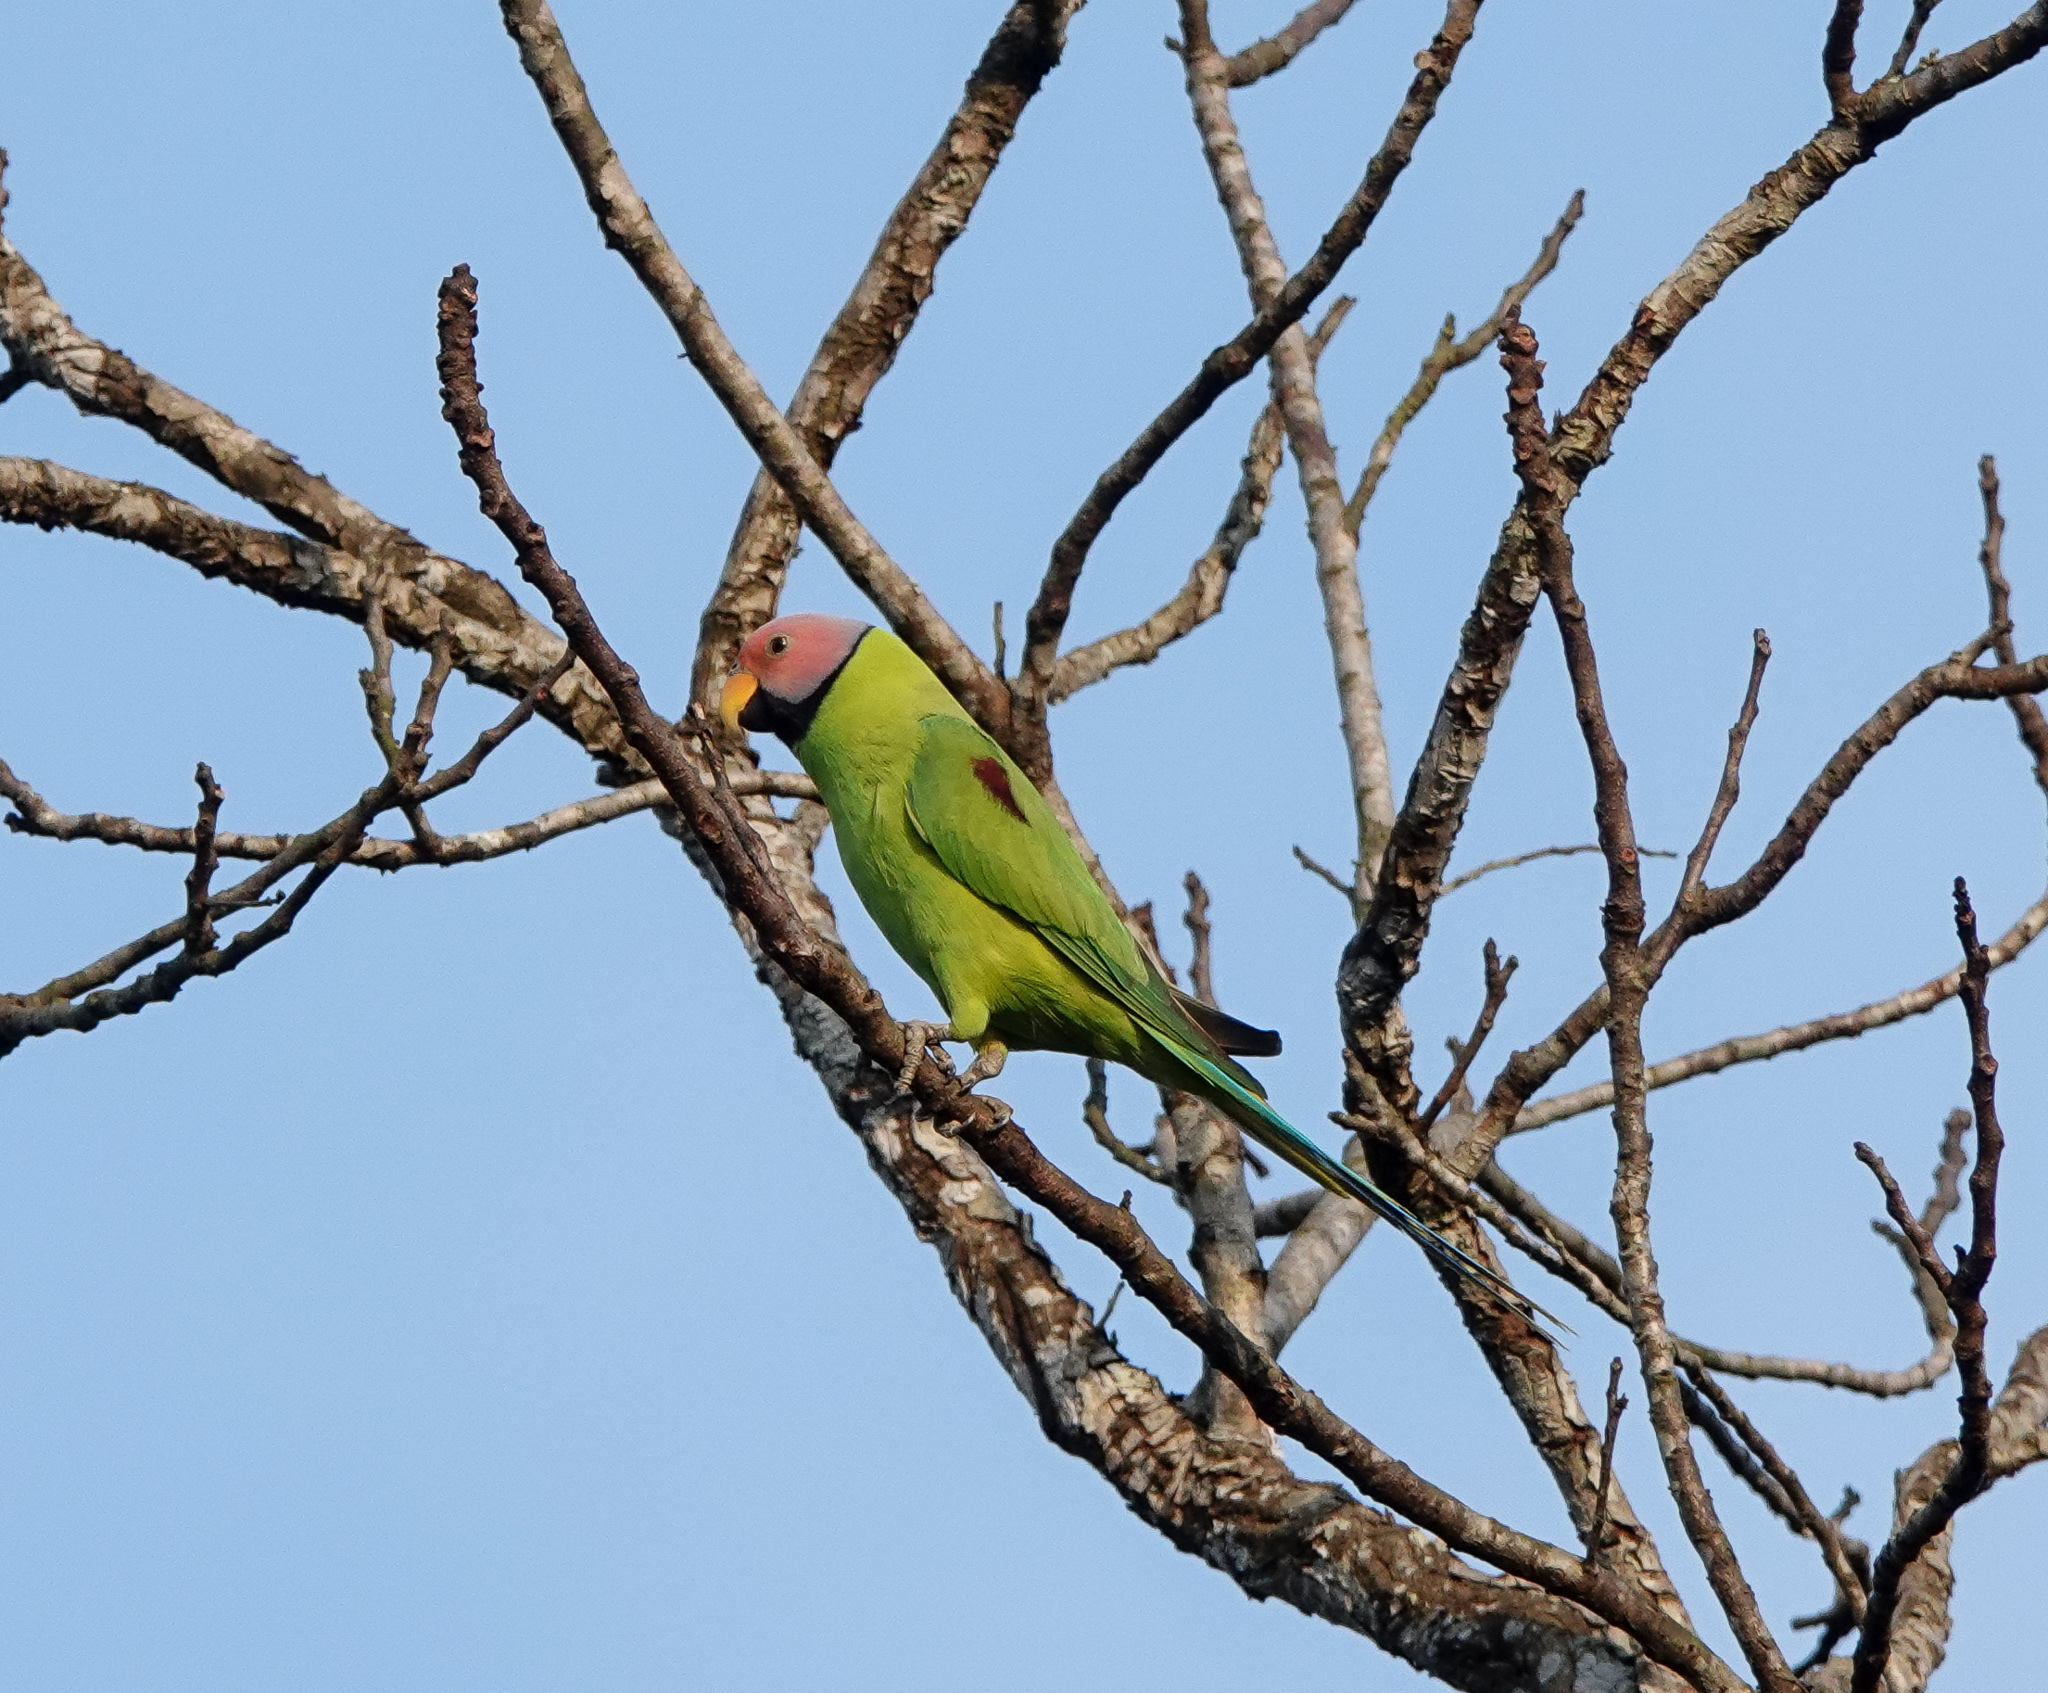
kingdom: Animalia
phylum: Chordata
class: Aves
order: Psittaciformes
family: Psittacidae
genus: Psittacula
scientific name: Psittacula roseata
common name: Blossom-headed parakeet
